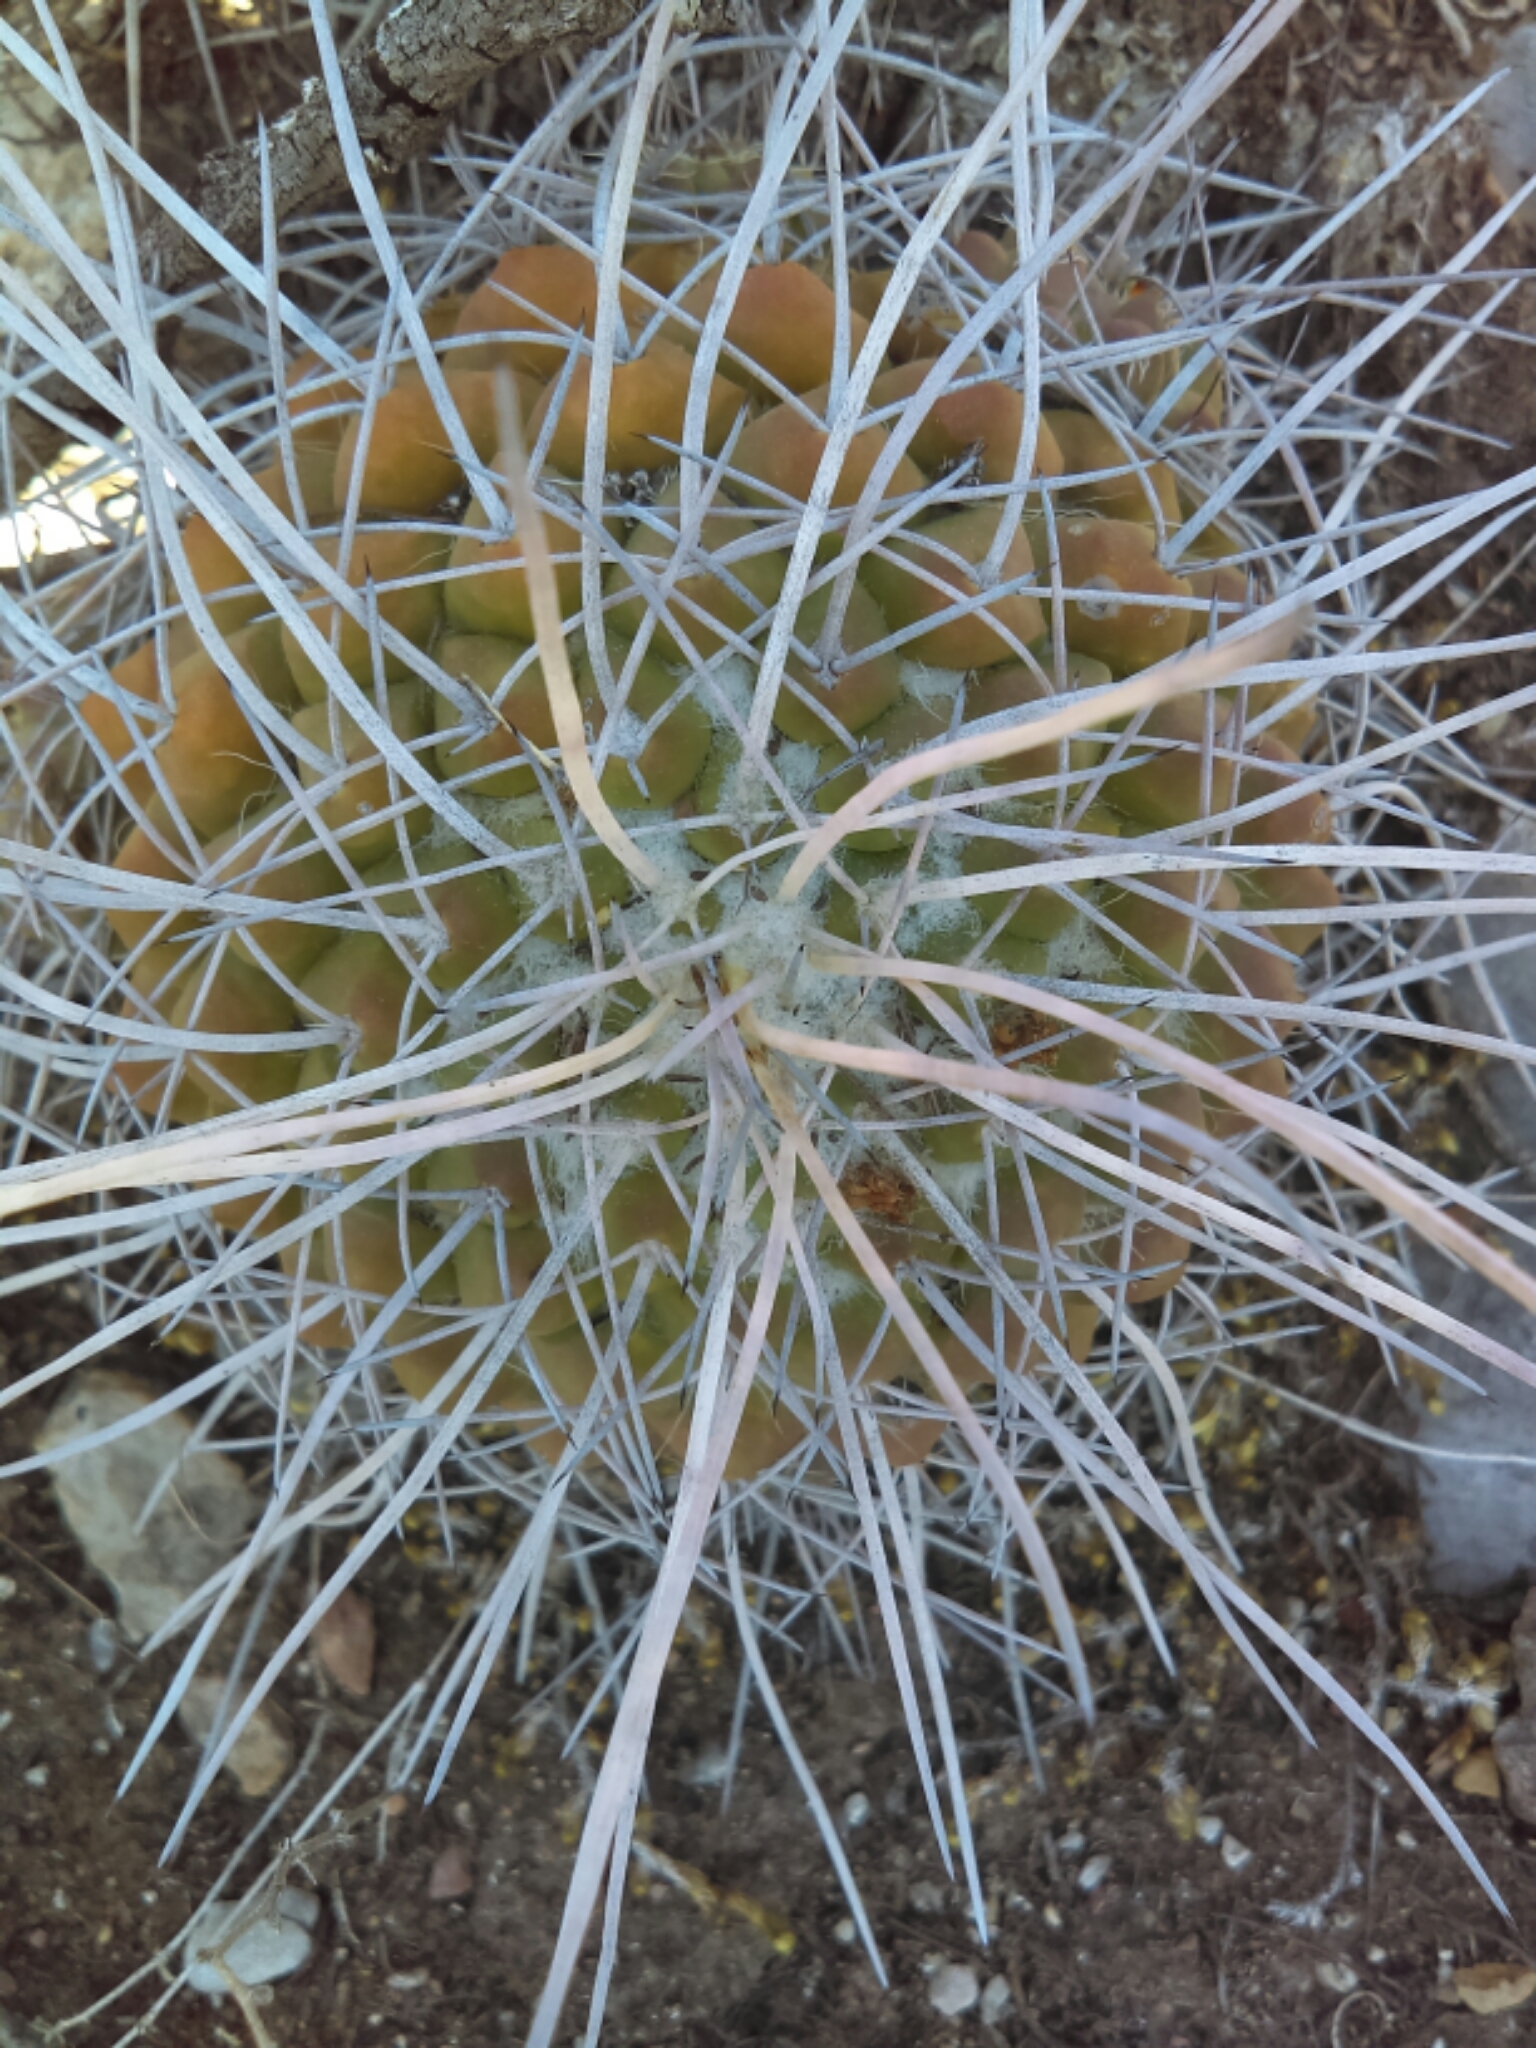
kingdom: Plantae
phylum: Tracheophyta
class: Magnoliopsida
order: Caryophyllales
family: Cactaceae
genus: Mammillaria
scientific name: Mammillaria compressa
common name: Mother-of-hundreds
